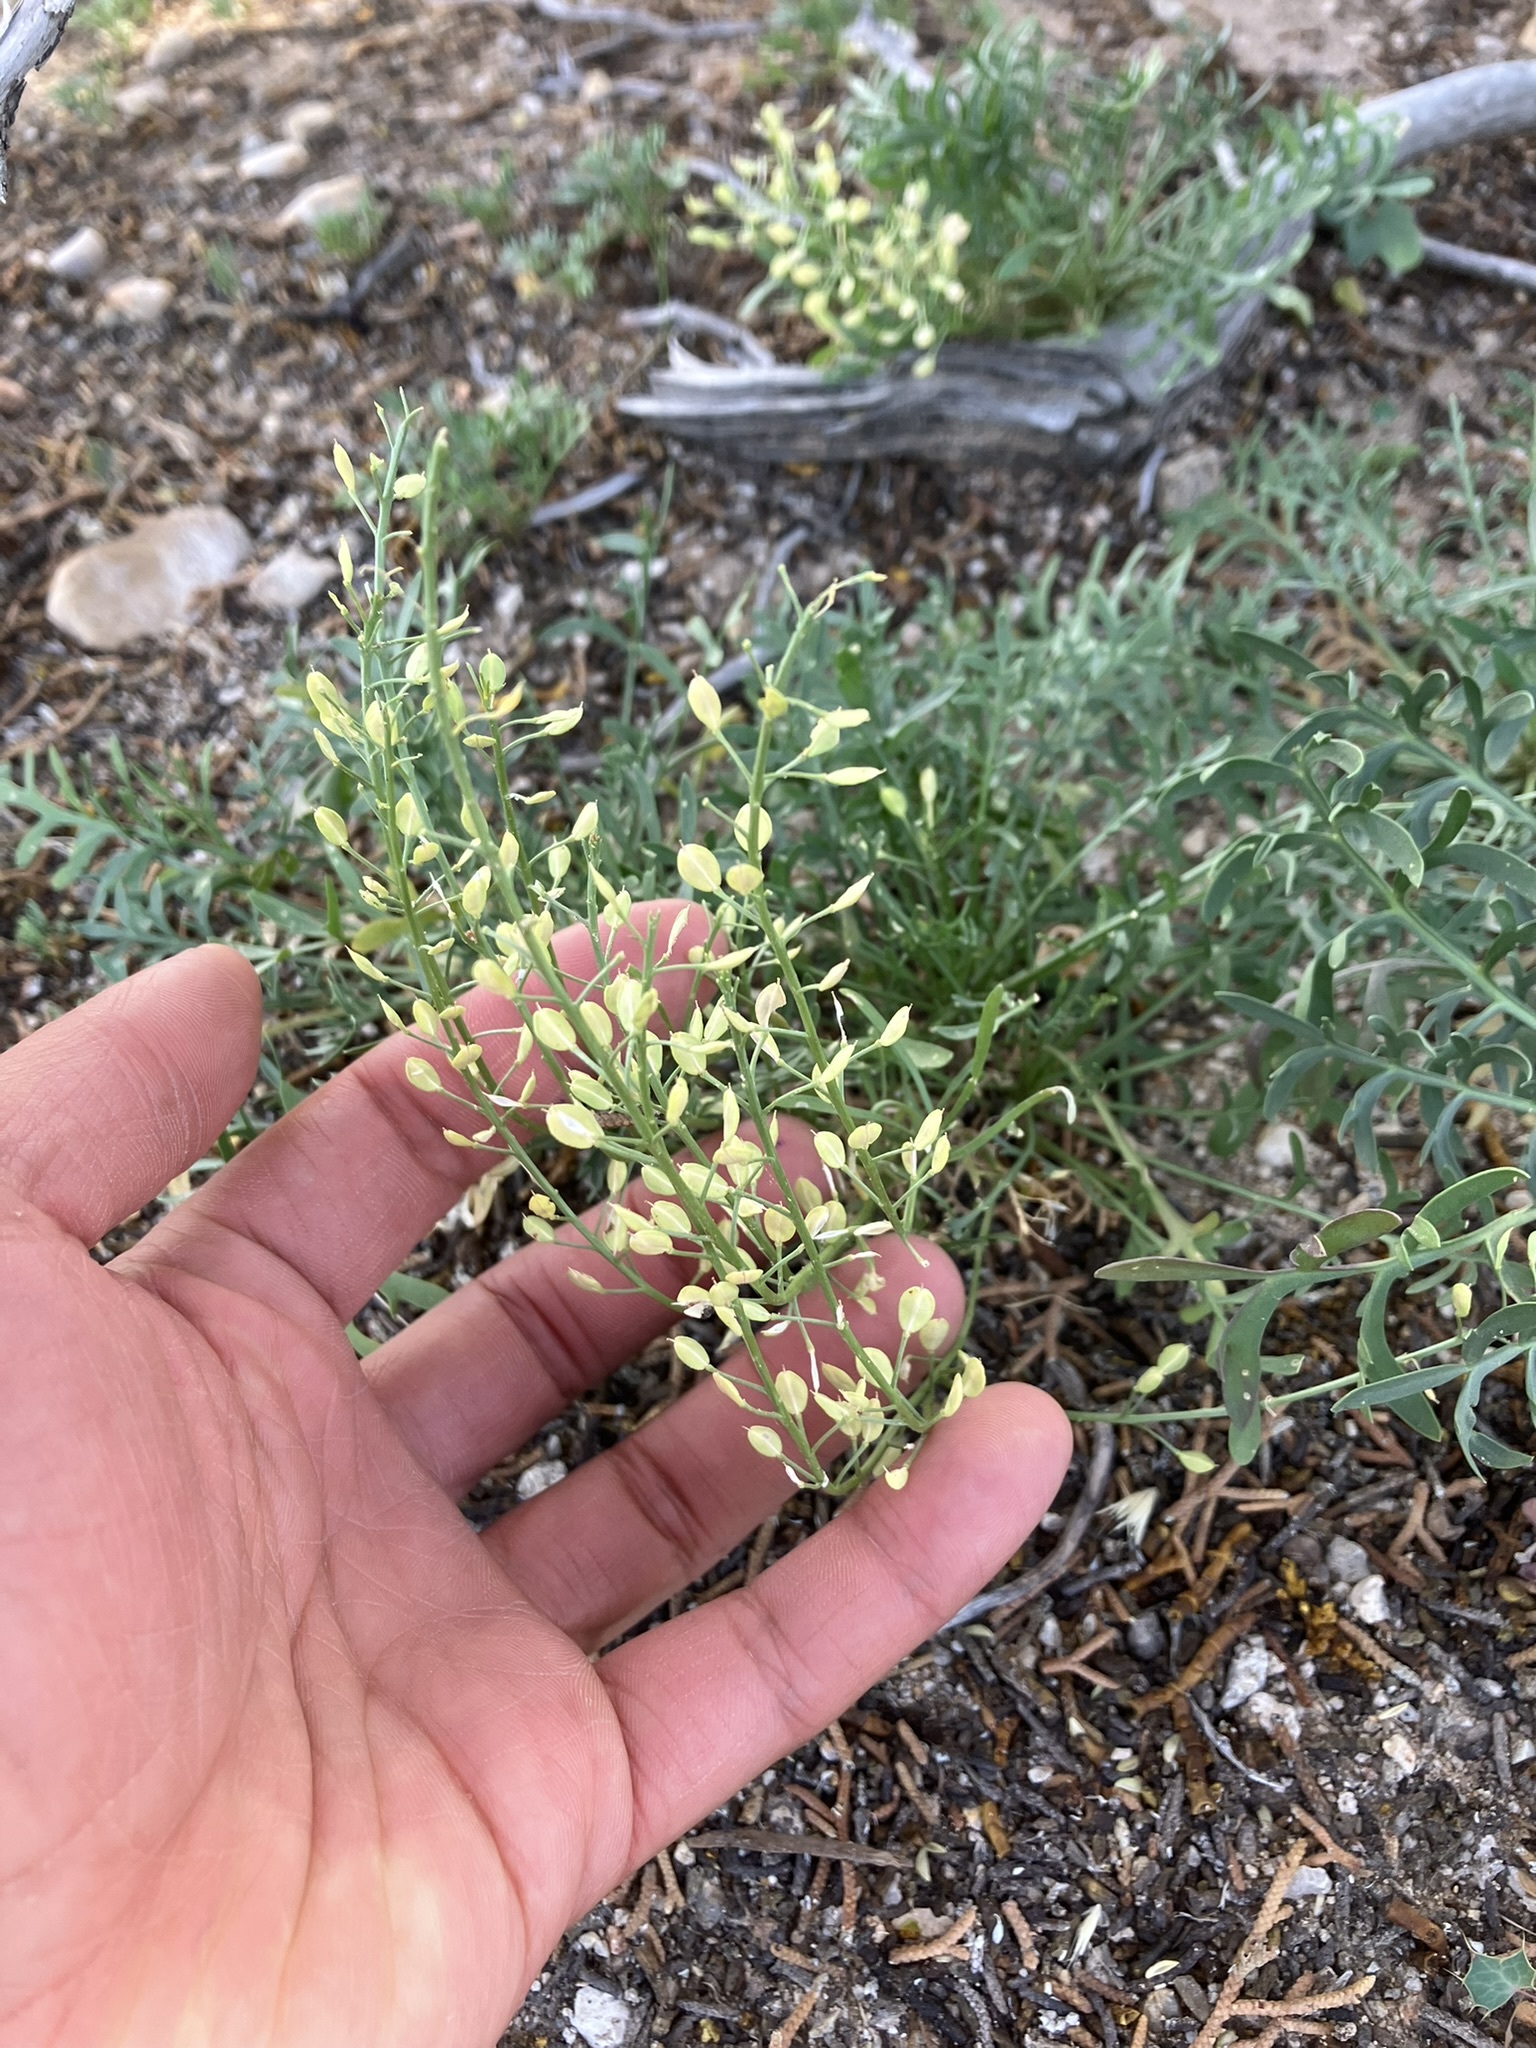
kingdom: Plantae
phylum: Tracheophyta
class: Magnoliopsida
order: Brassicales
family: Brassicaceae
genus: Lepidium
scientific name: Lepidium montanum
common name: Mountain pepperplant
